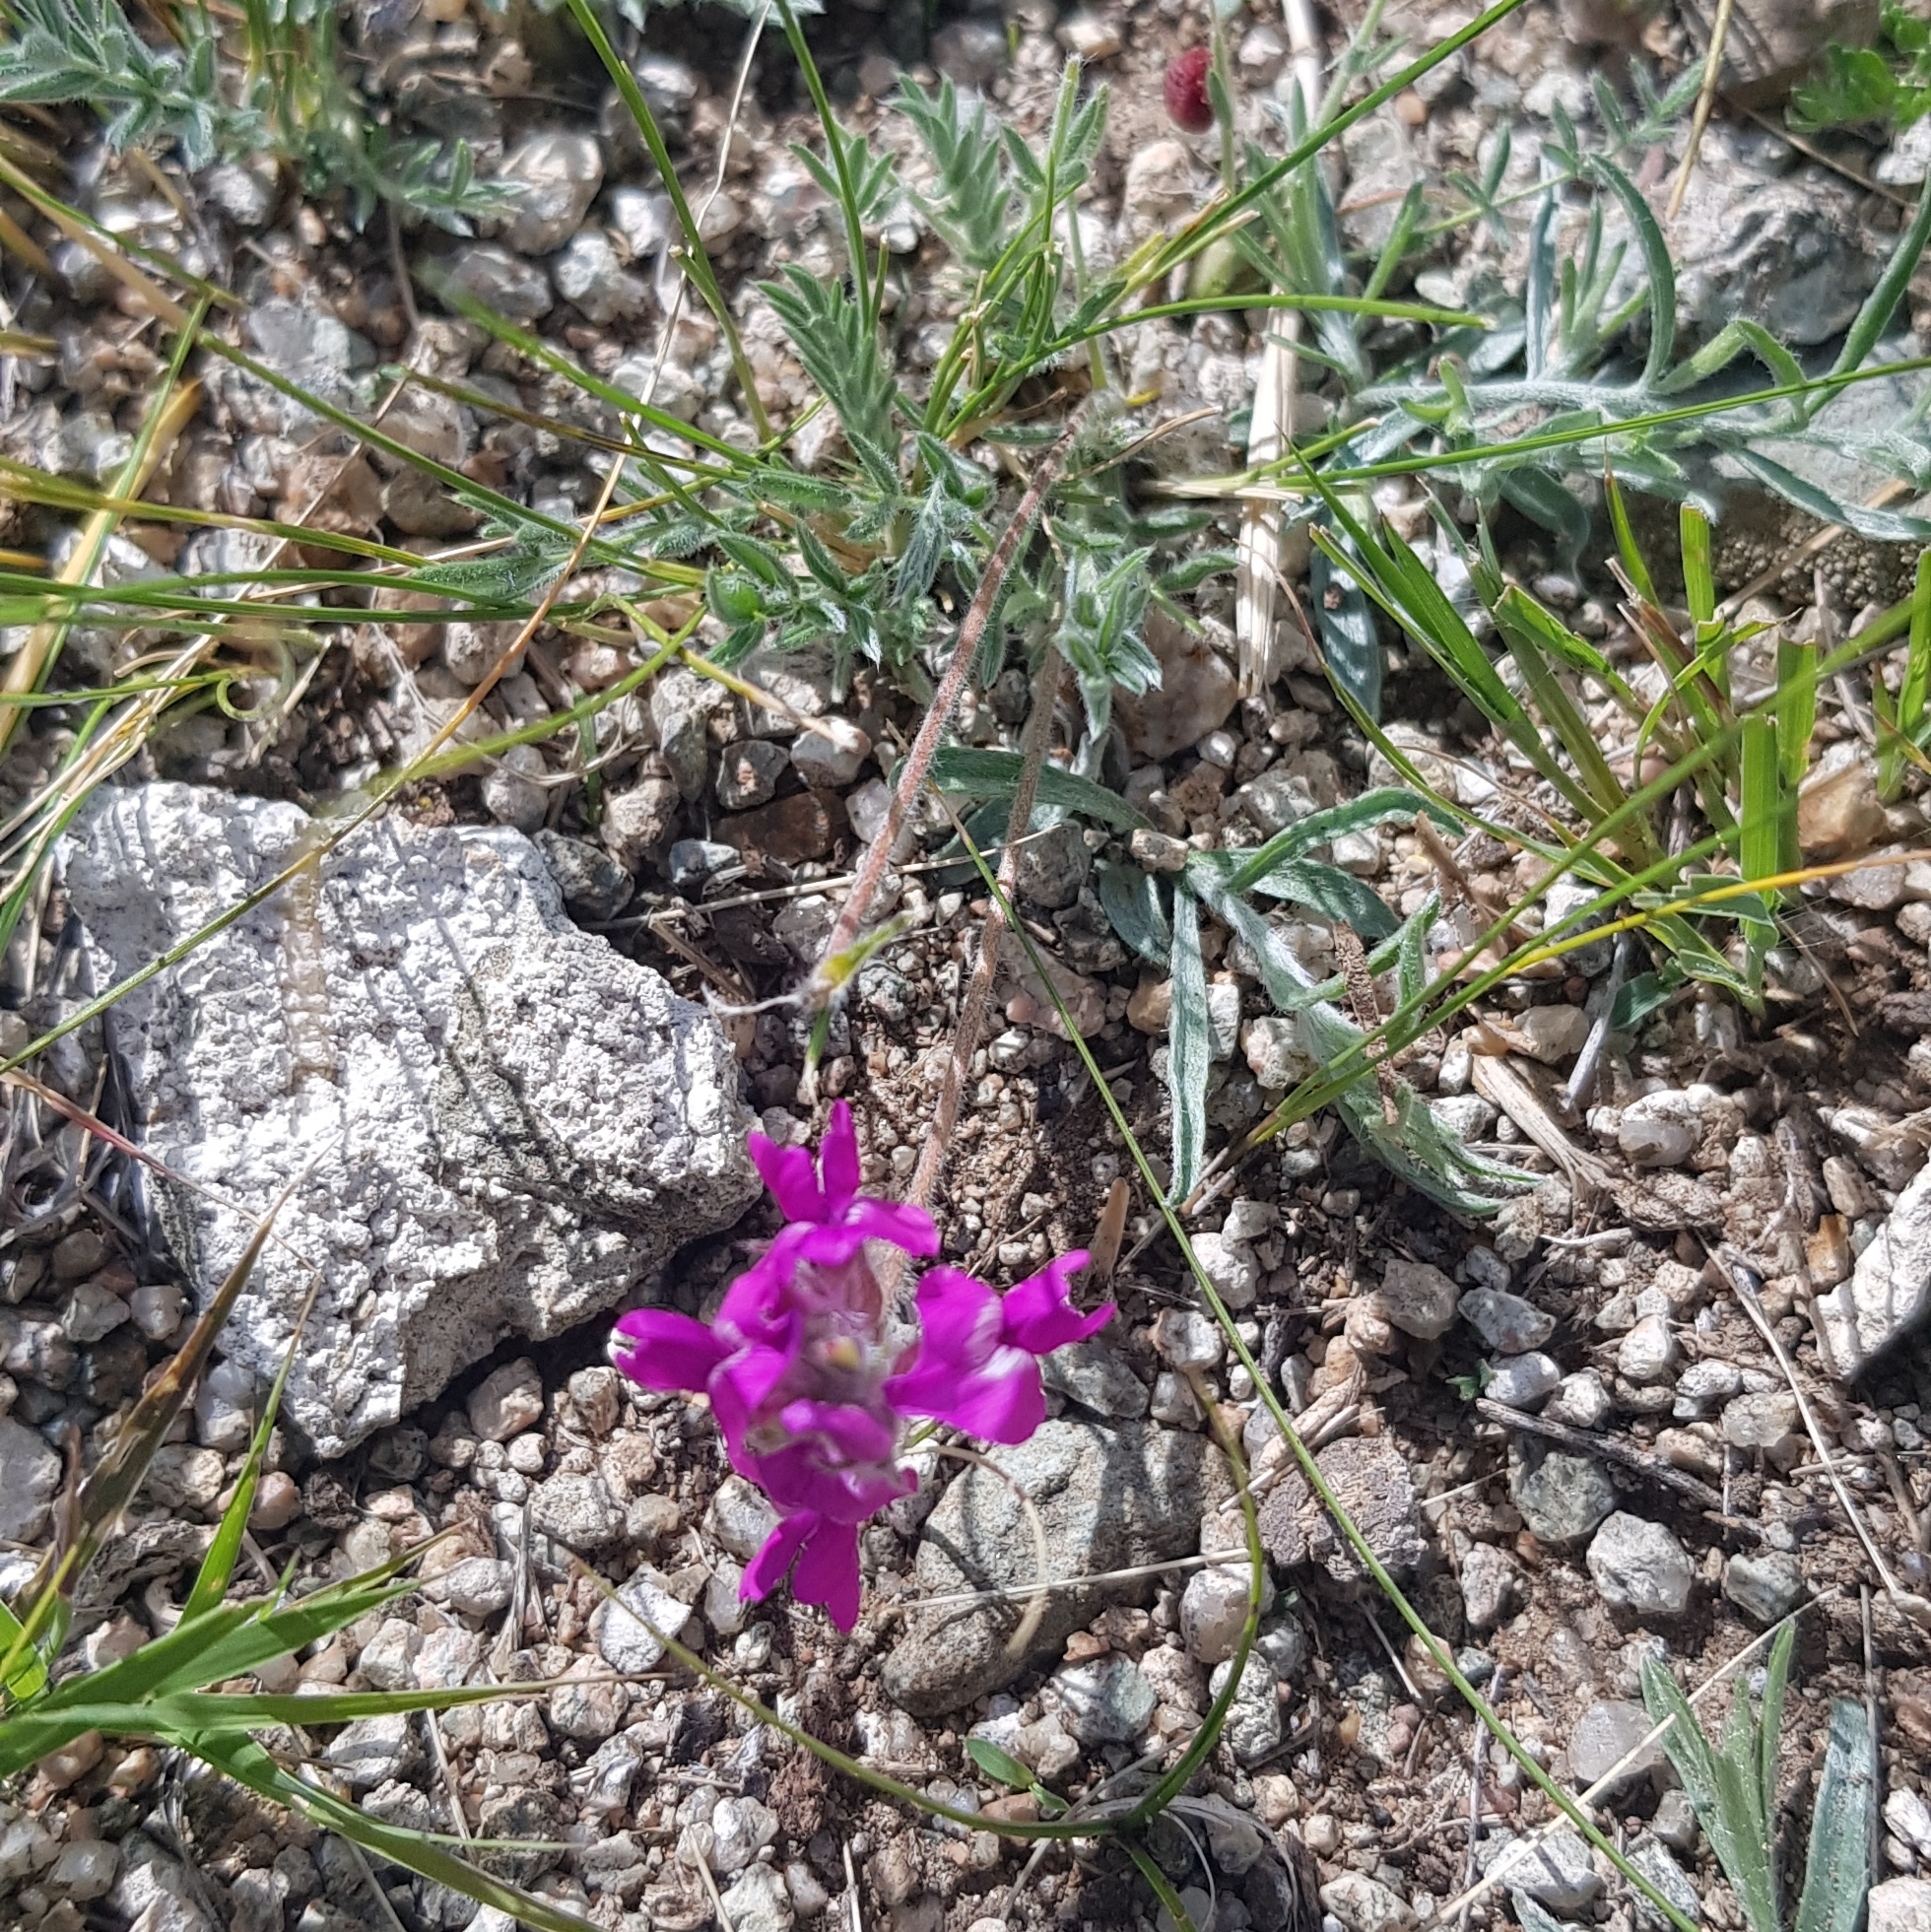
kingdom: Plantae
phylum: Tracheophyta
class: Magnoliopsida
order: Fabales
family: Fabaceae
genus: Oxytropis
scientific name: Oxytropis coerulea
